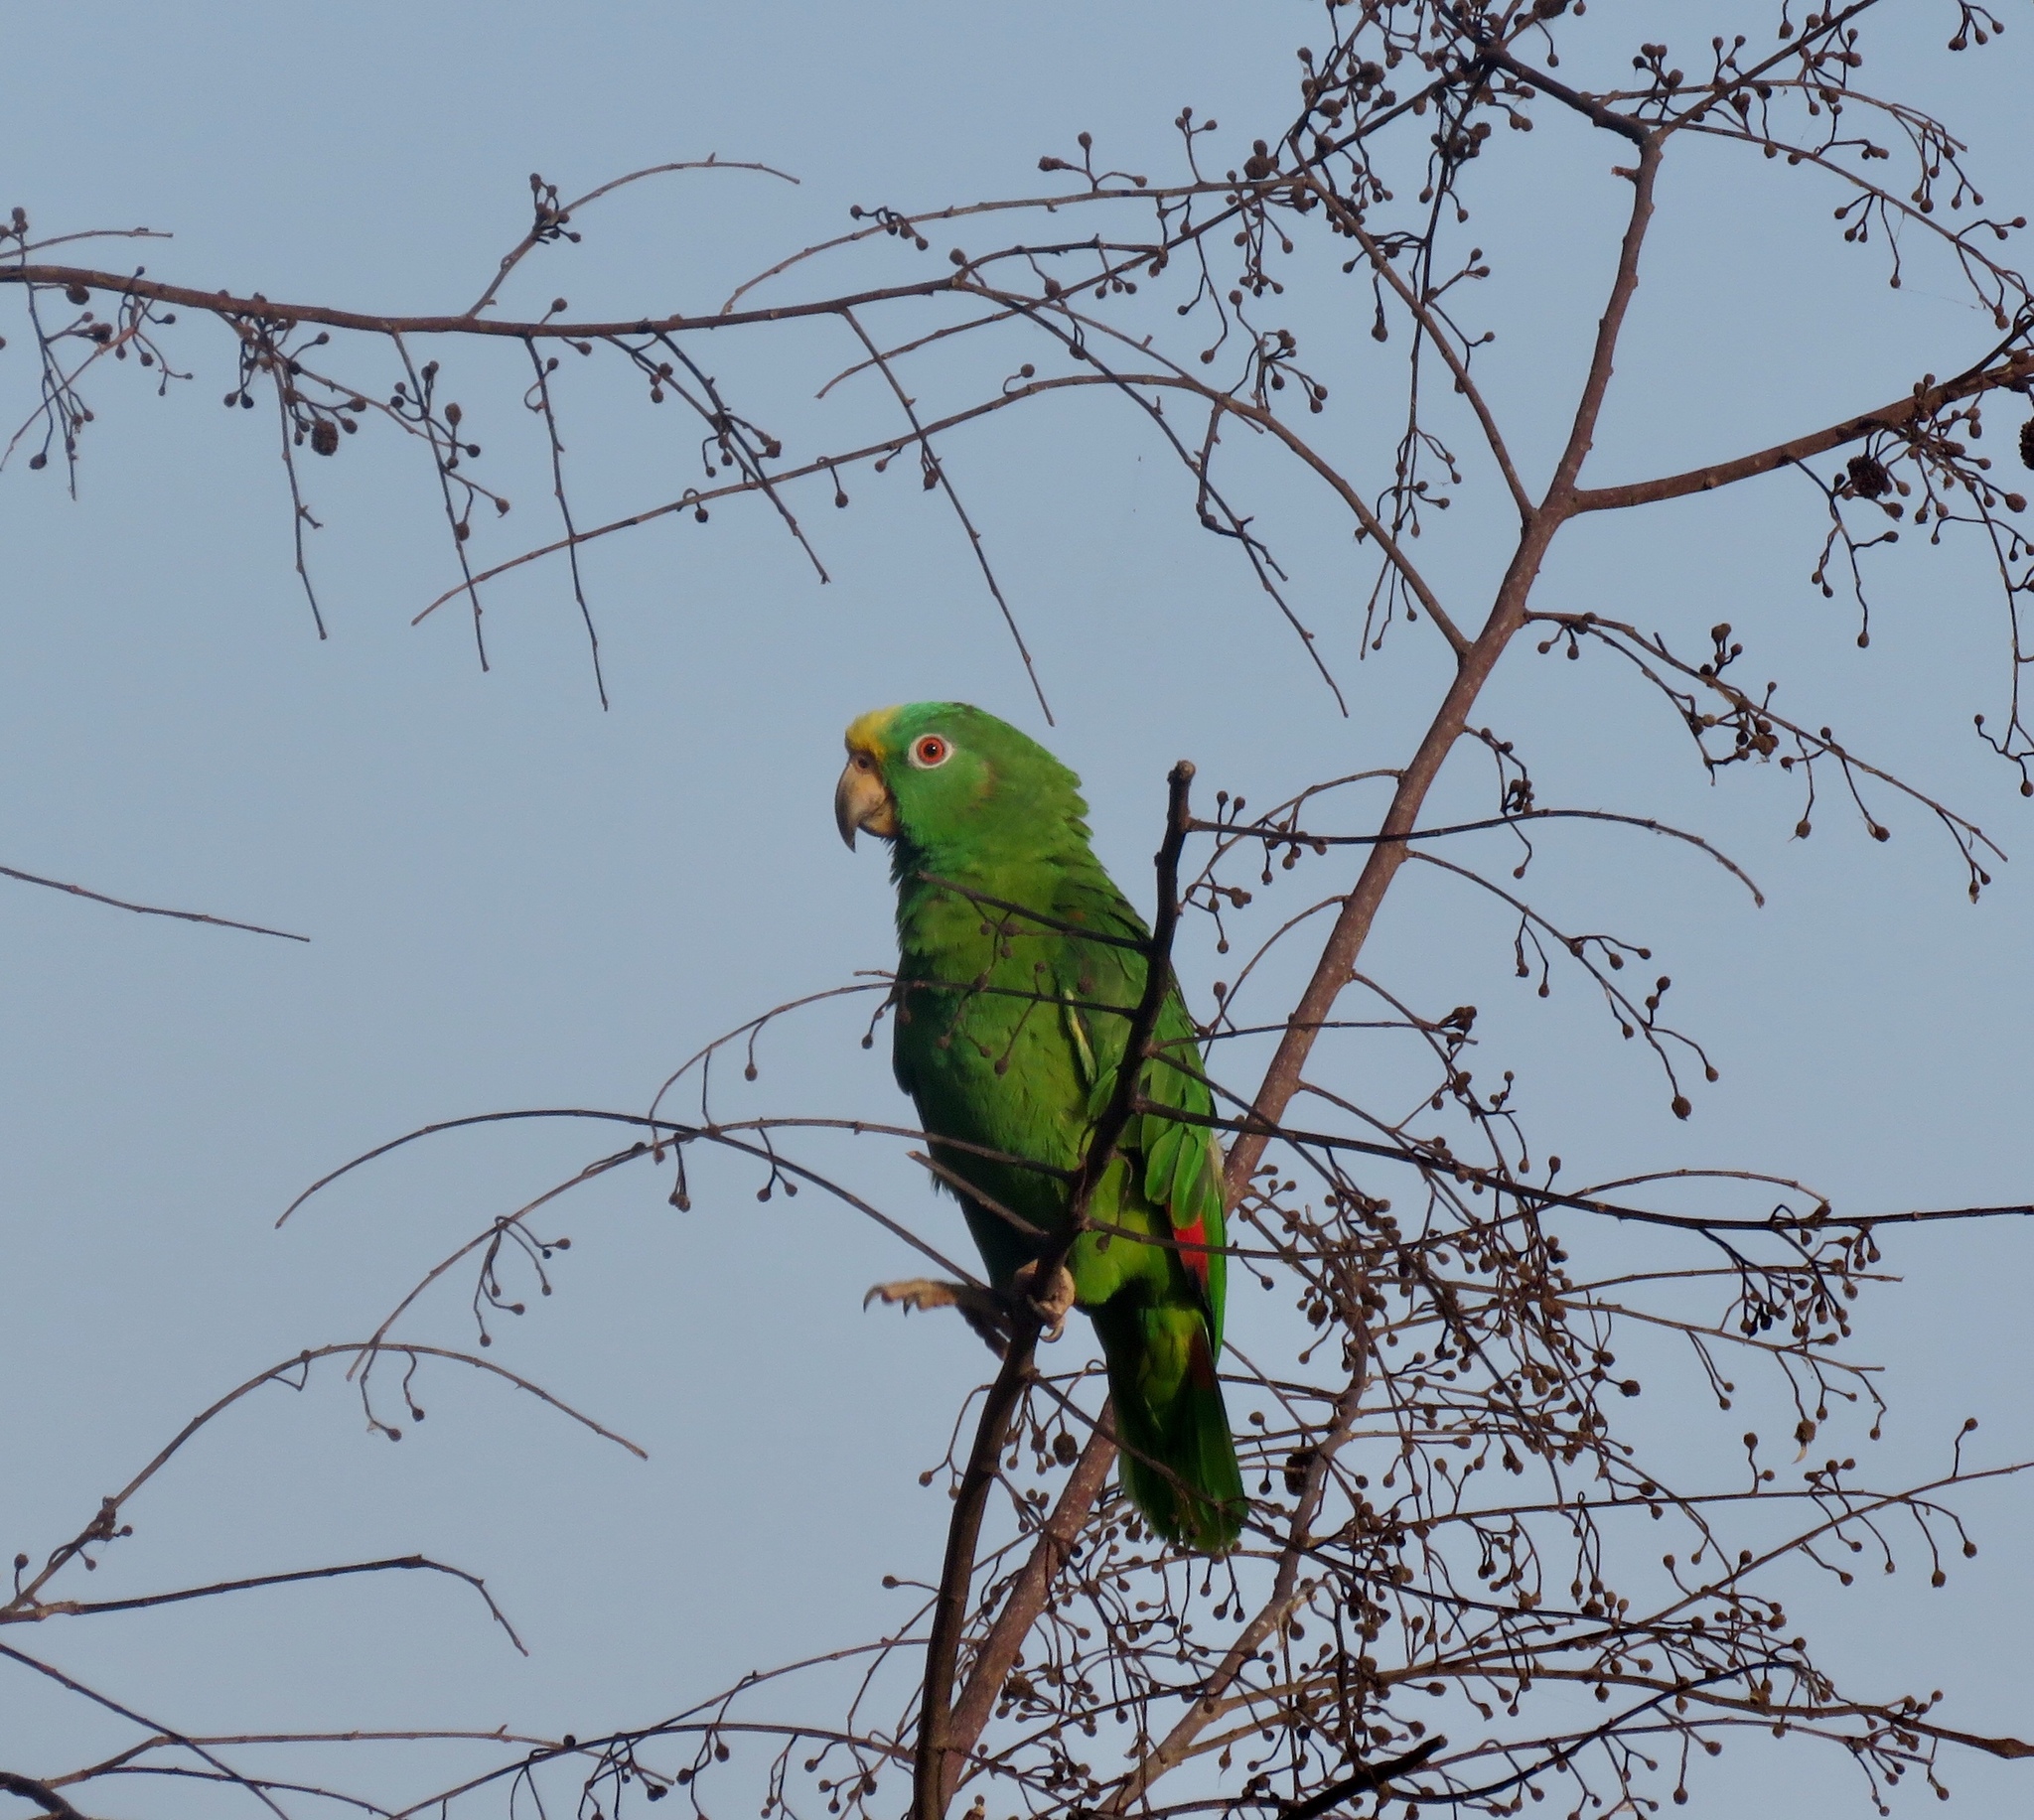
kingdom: Animalia
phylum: Chordata
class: Aves
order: Psittaciformes
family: Psittacidae
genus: Amazona
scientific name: Amazona ochrocephala
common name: Yellow-crowned amazon
